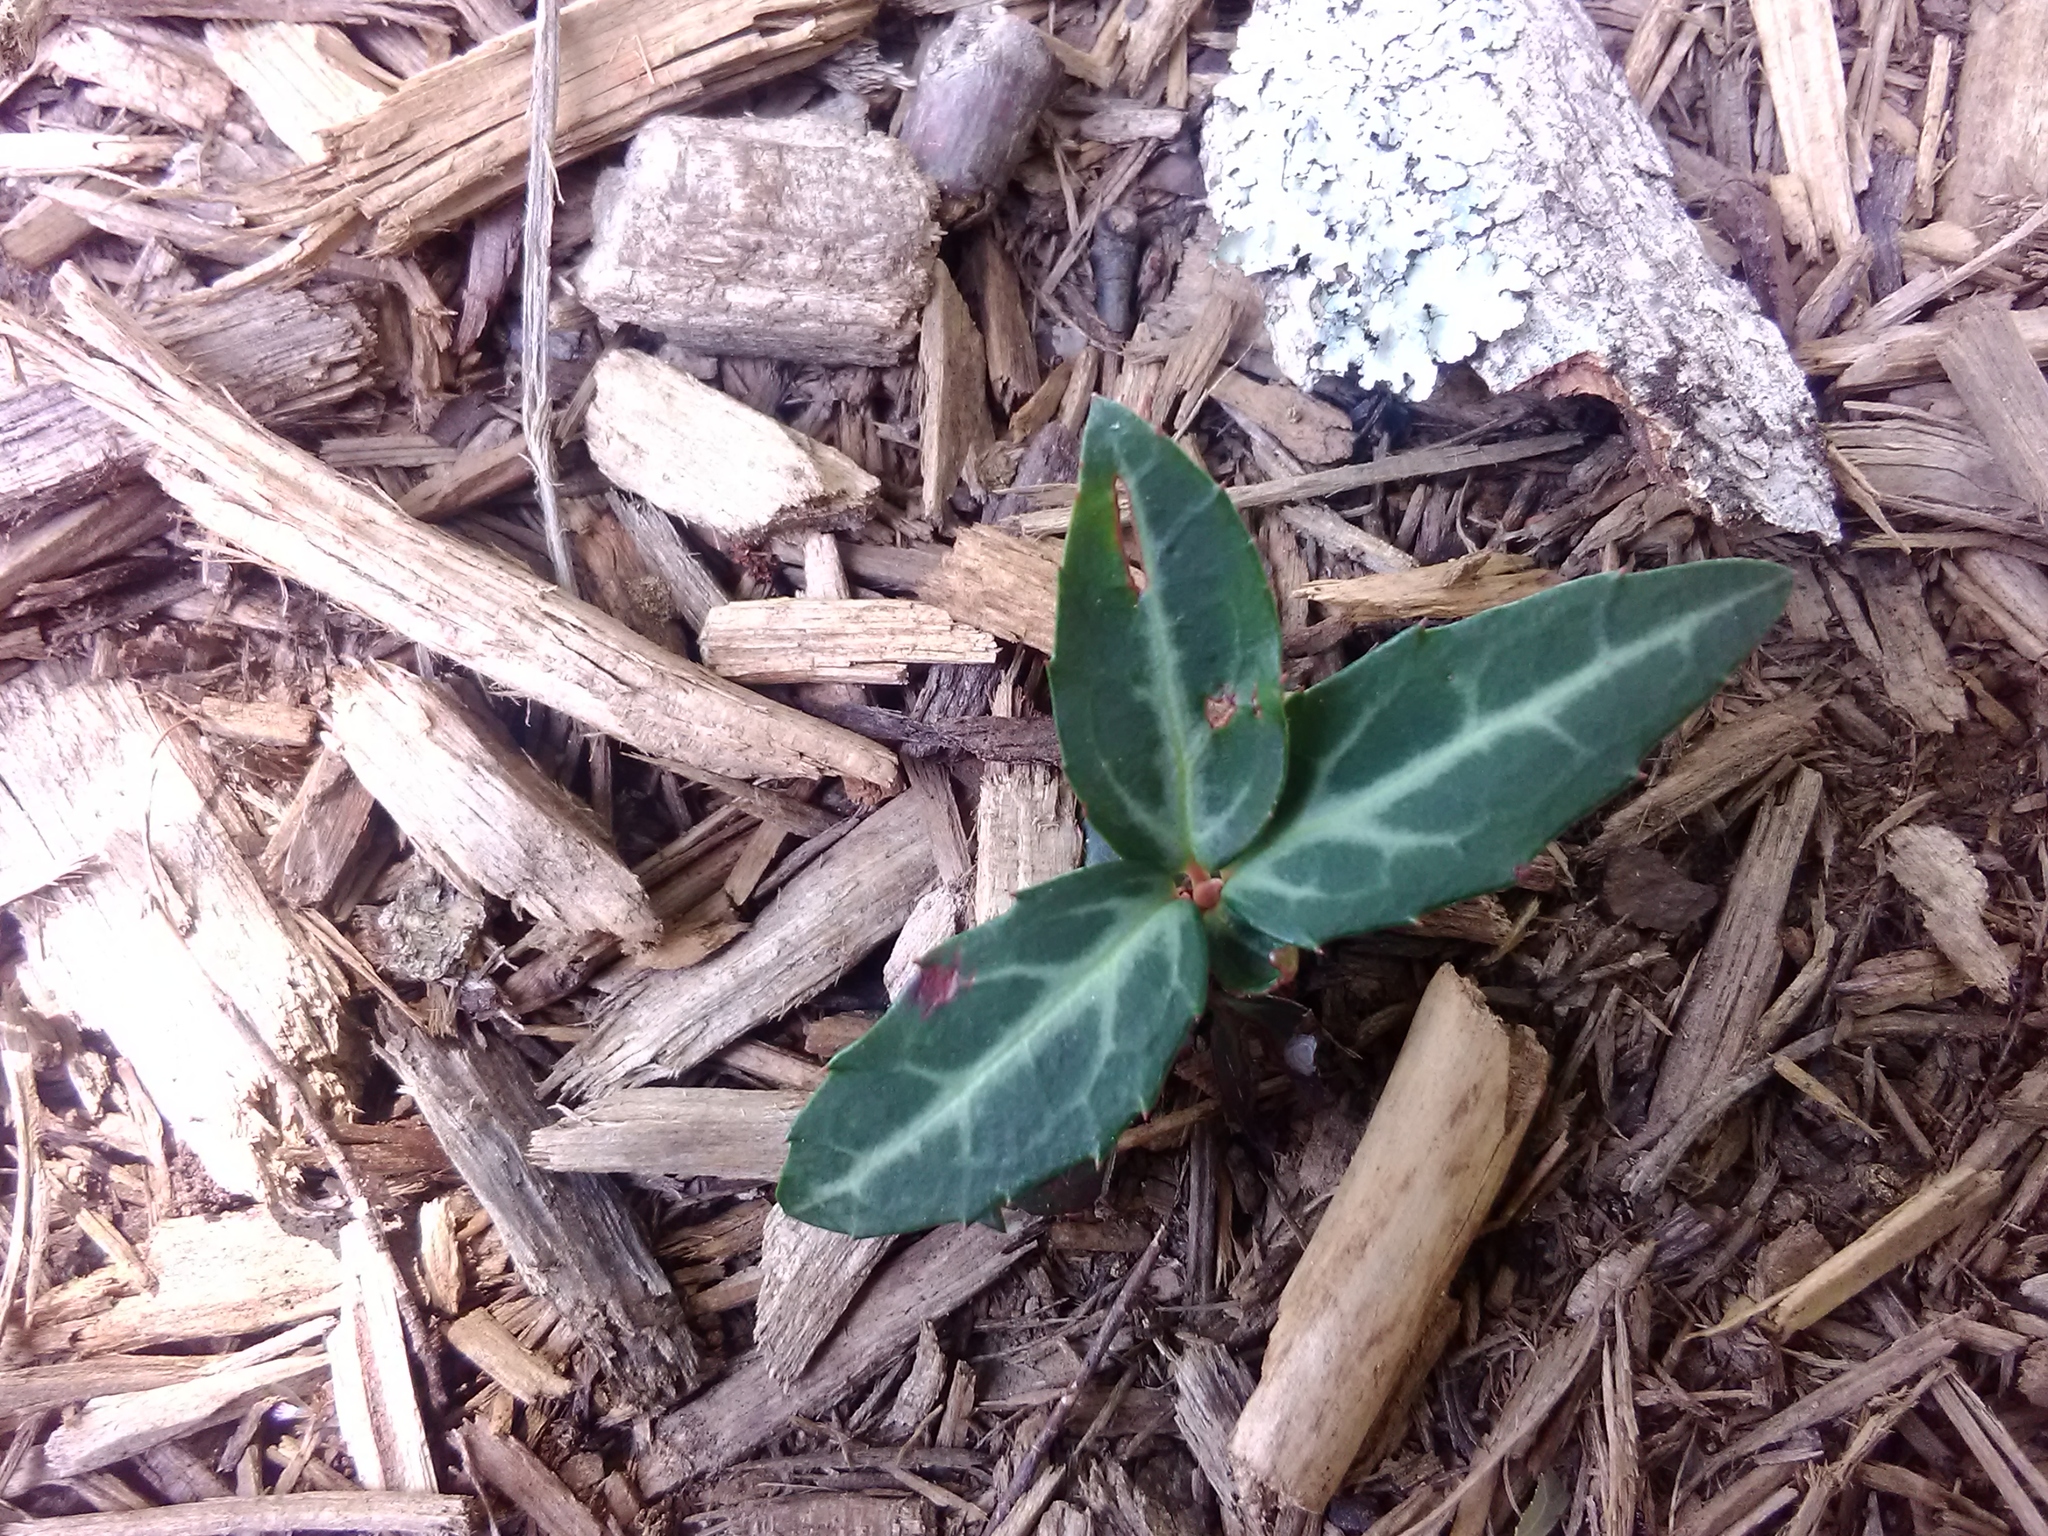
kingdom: Plantae
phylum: Tracheophyta
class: Magnoliopsida
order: Ericales
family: Ericaceae
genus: Chimaphila
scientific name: Chimaphila maculata
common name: Spotted pipsissewa
